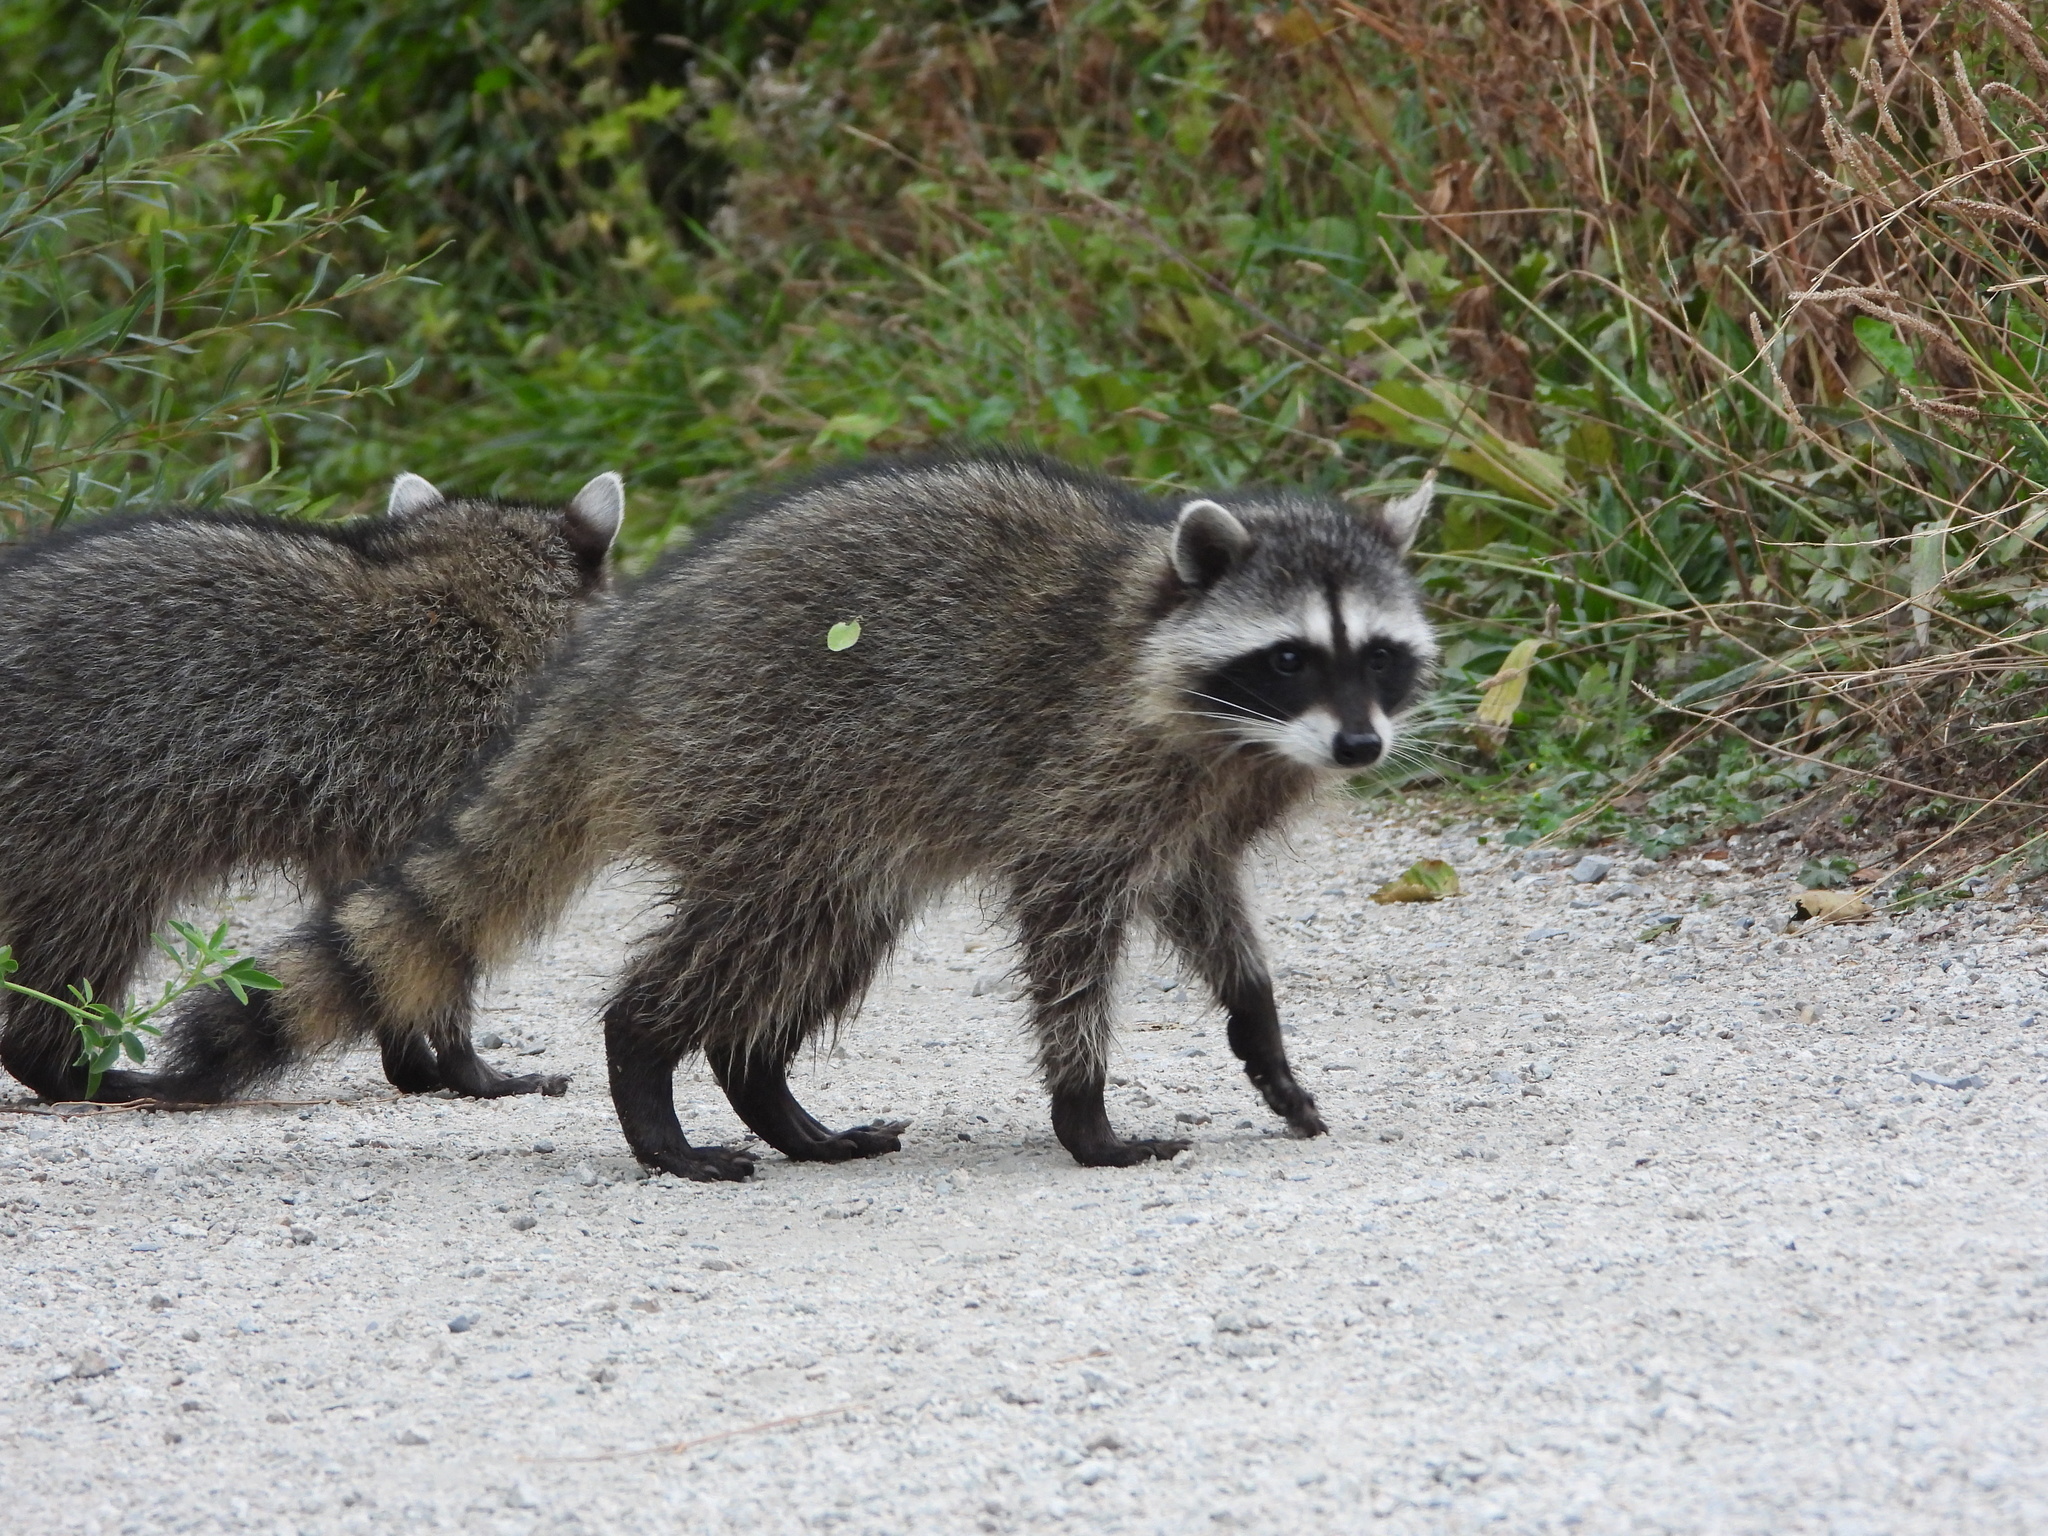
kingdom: Animalia
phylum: Chordata
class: Mammalia
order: Carnivora
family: Procyonidae
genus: Procyon
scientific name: Procyon lotor
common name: Raccoon
